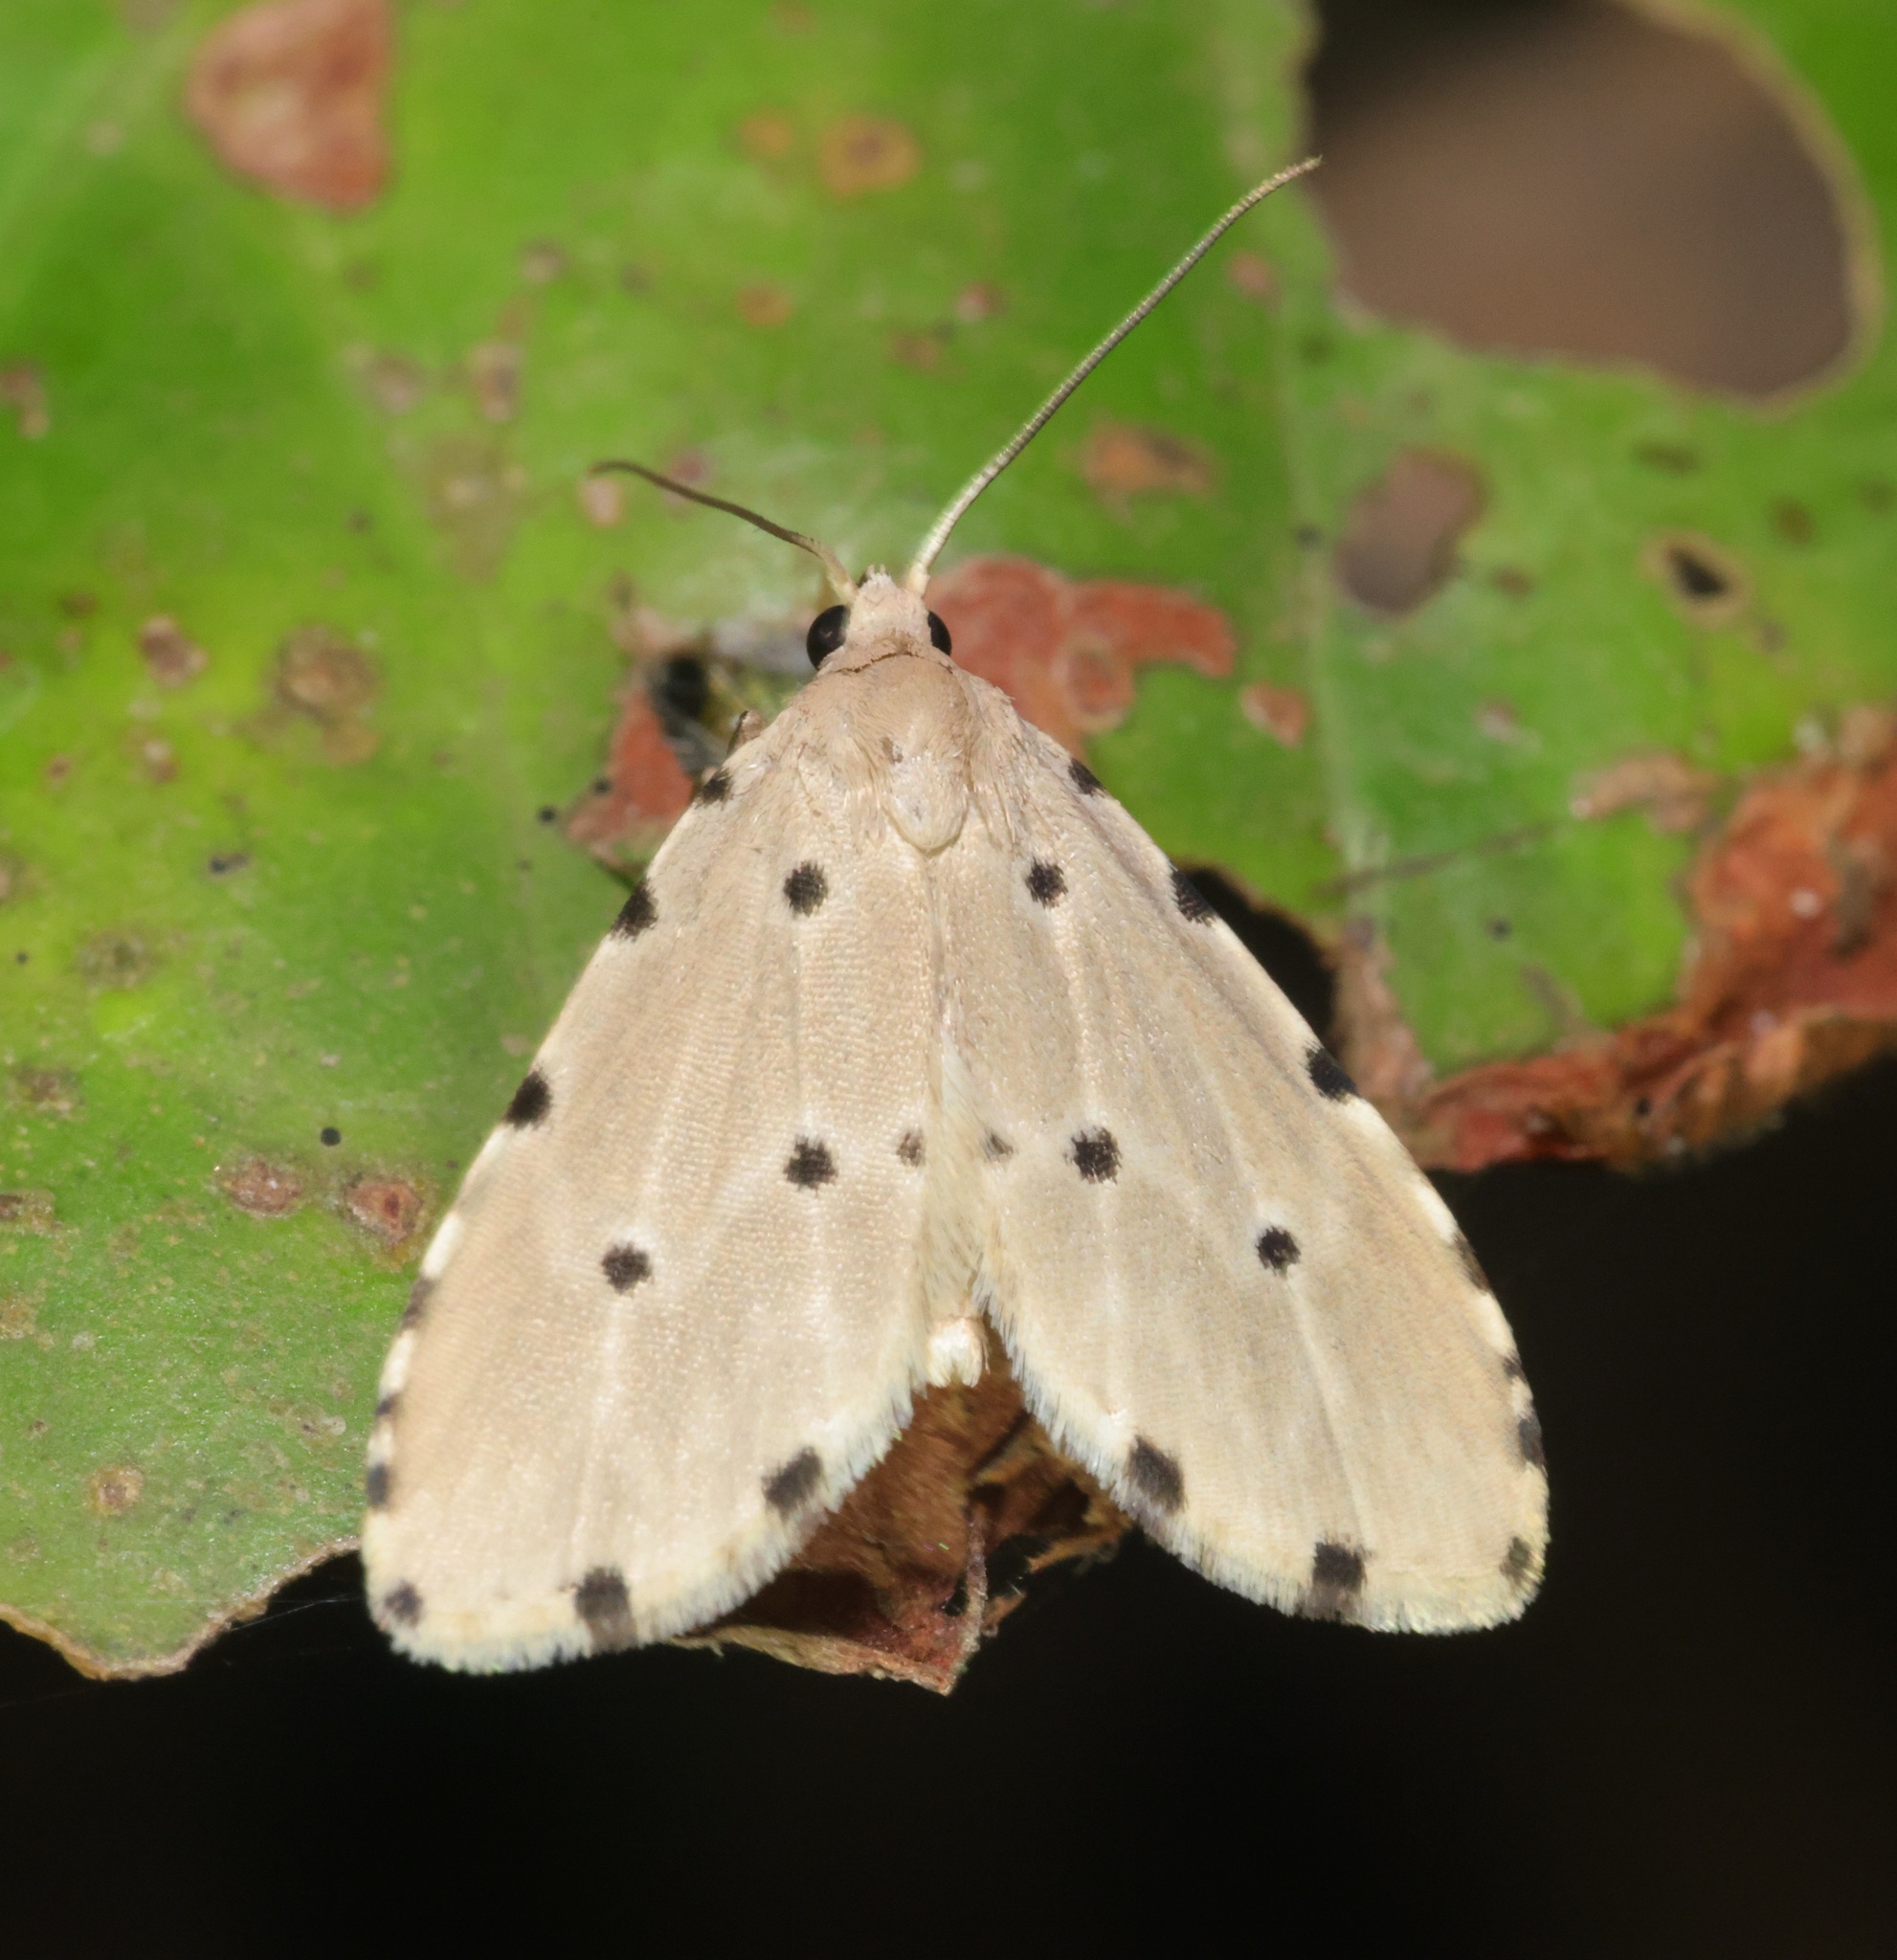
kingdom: Animalia
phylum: Arthropoda
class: Insecta
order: Lepidoptera
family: Noctuidae
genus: Metaemene
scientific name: Metaemene atrigutta
